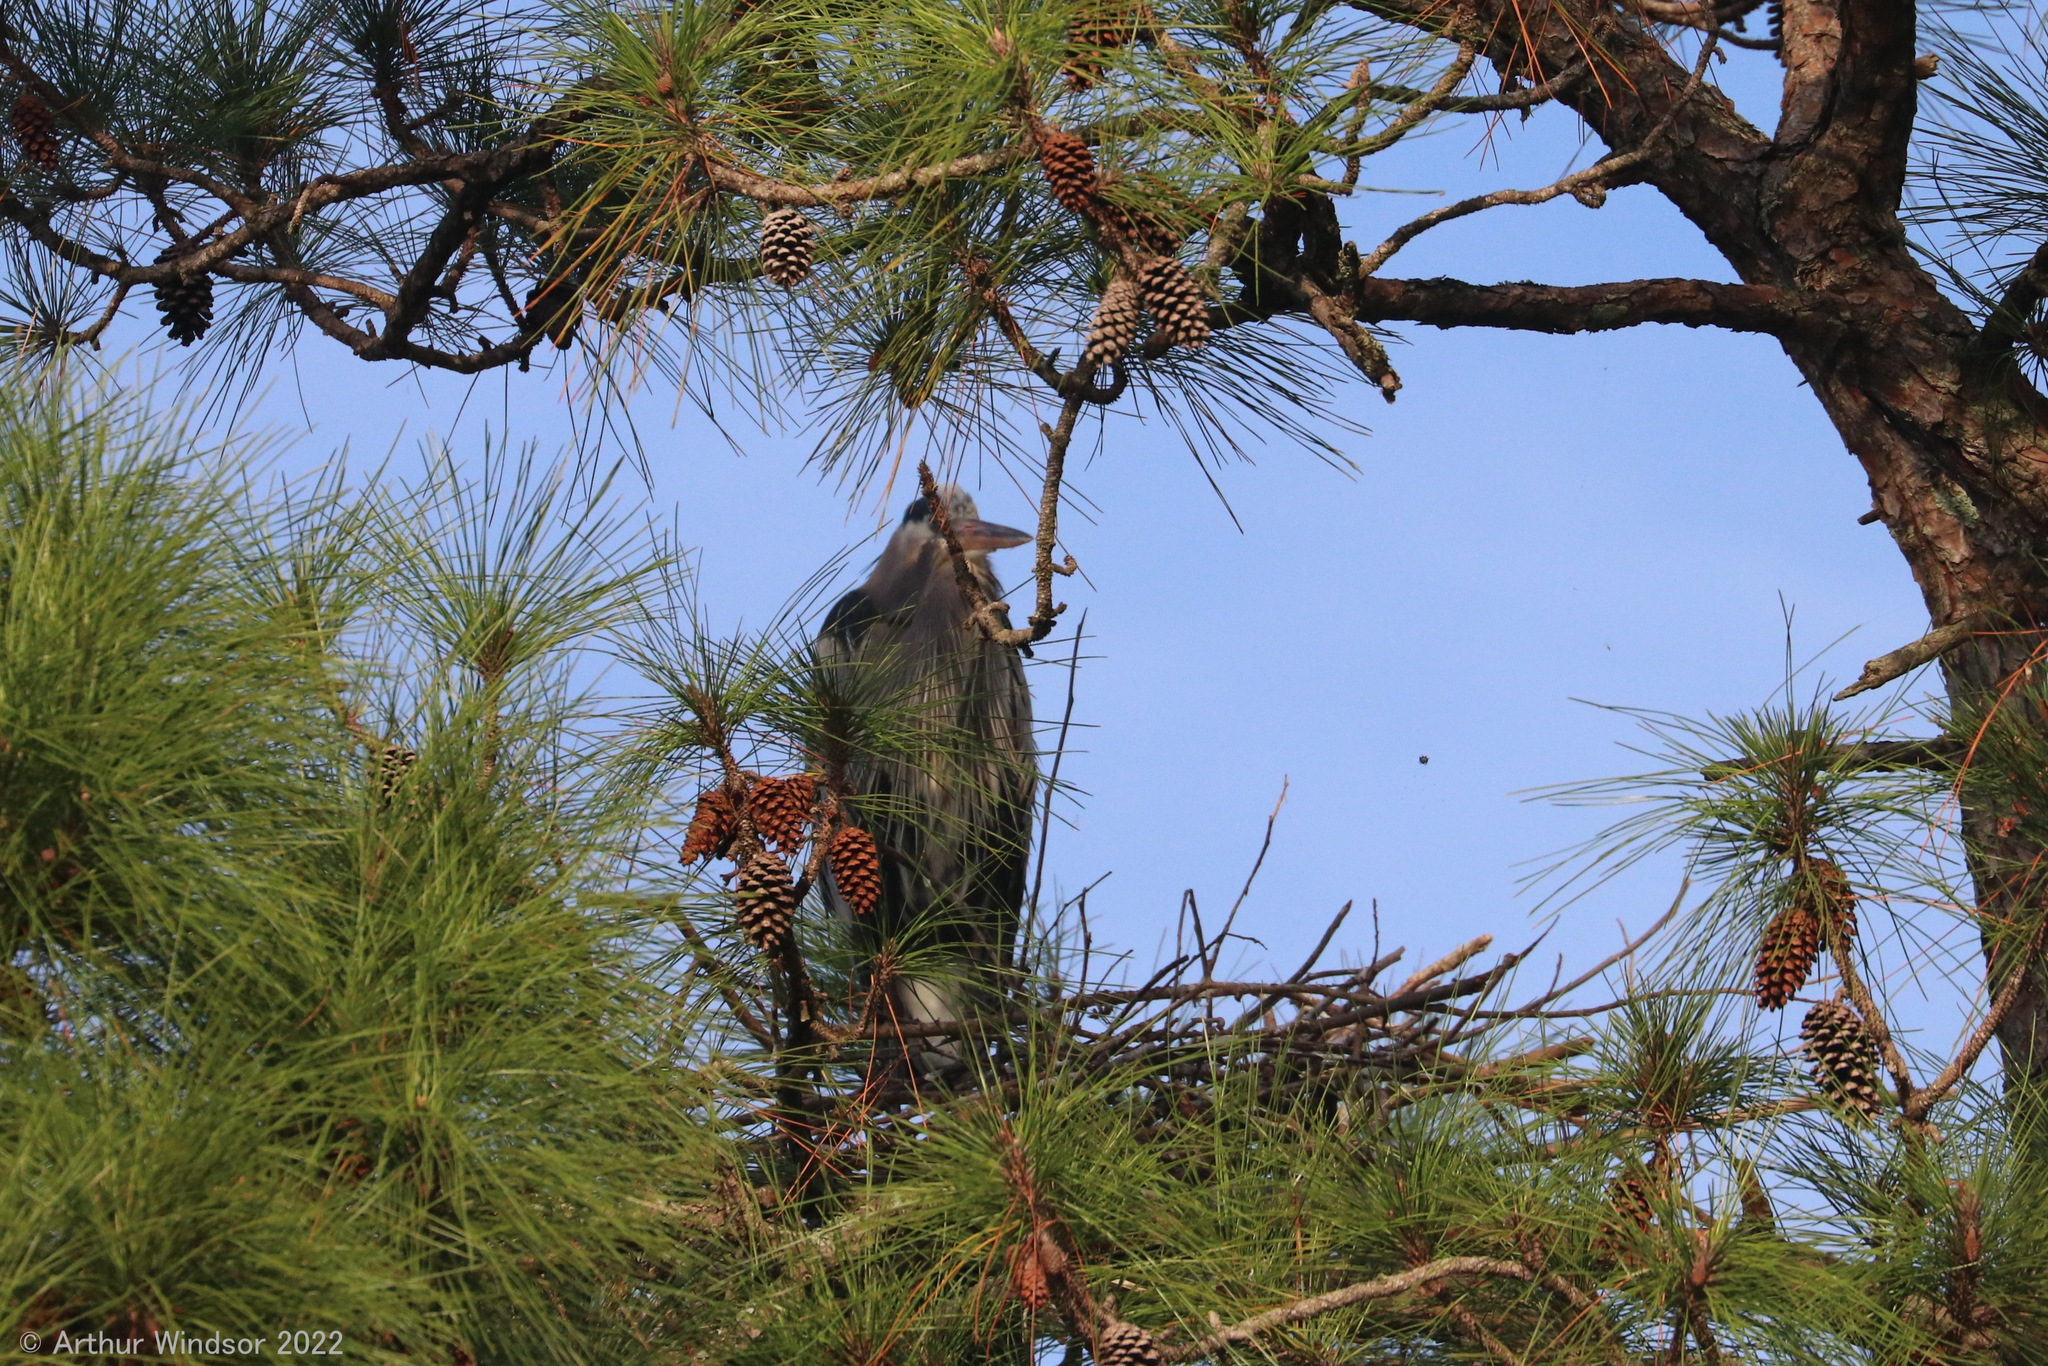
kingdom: Animalia
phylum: Chordata
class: Aves
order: Pelecaniformes
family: Ardeidae
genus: Ardea
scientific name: Ardea herodias
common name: Great blue heron
